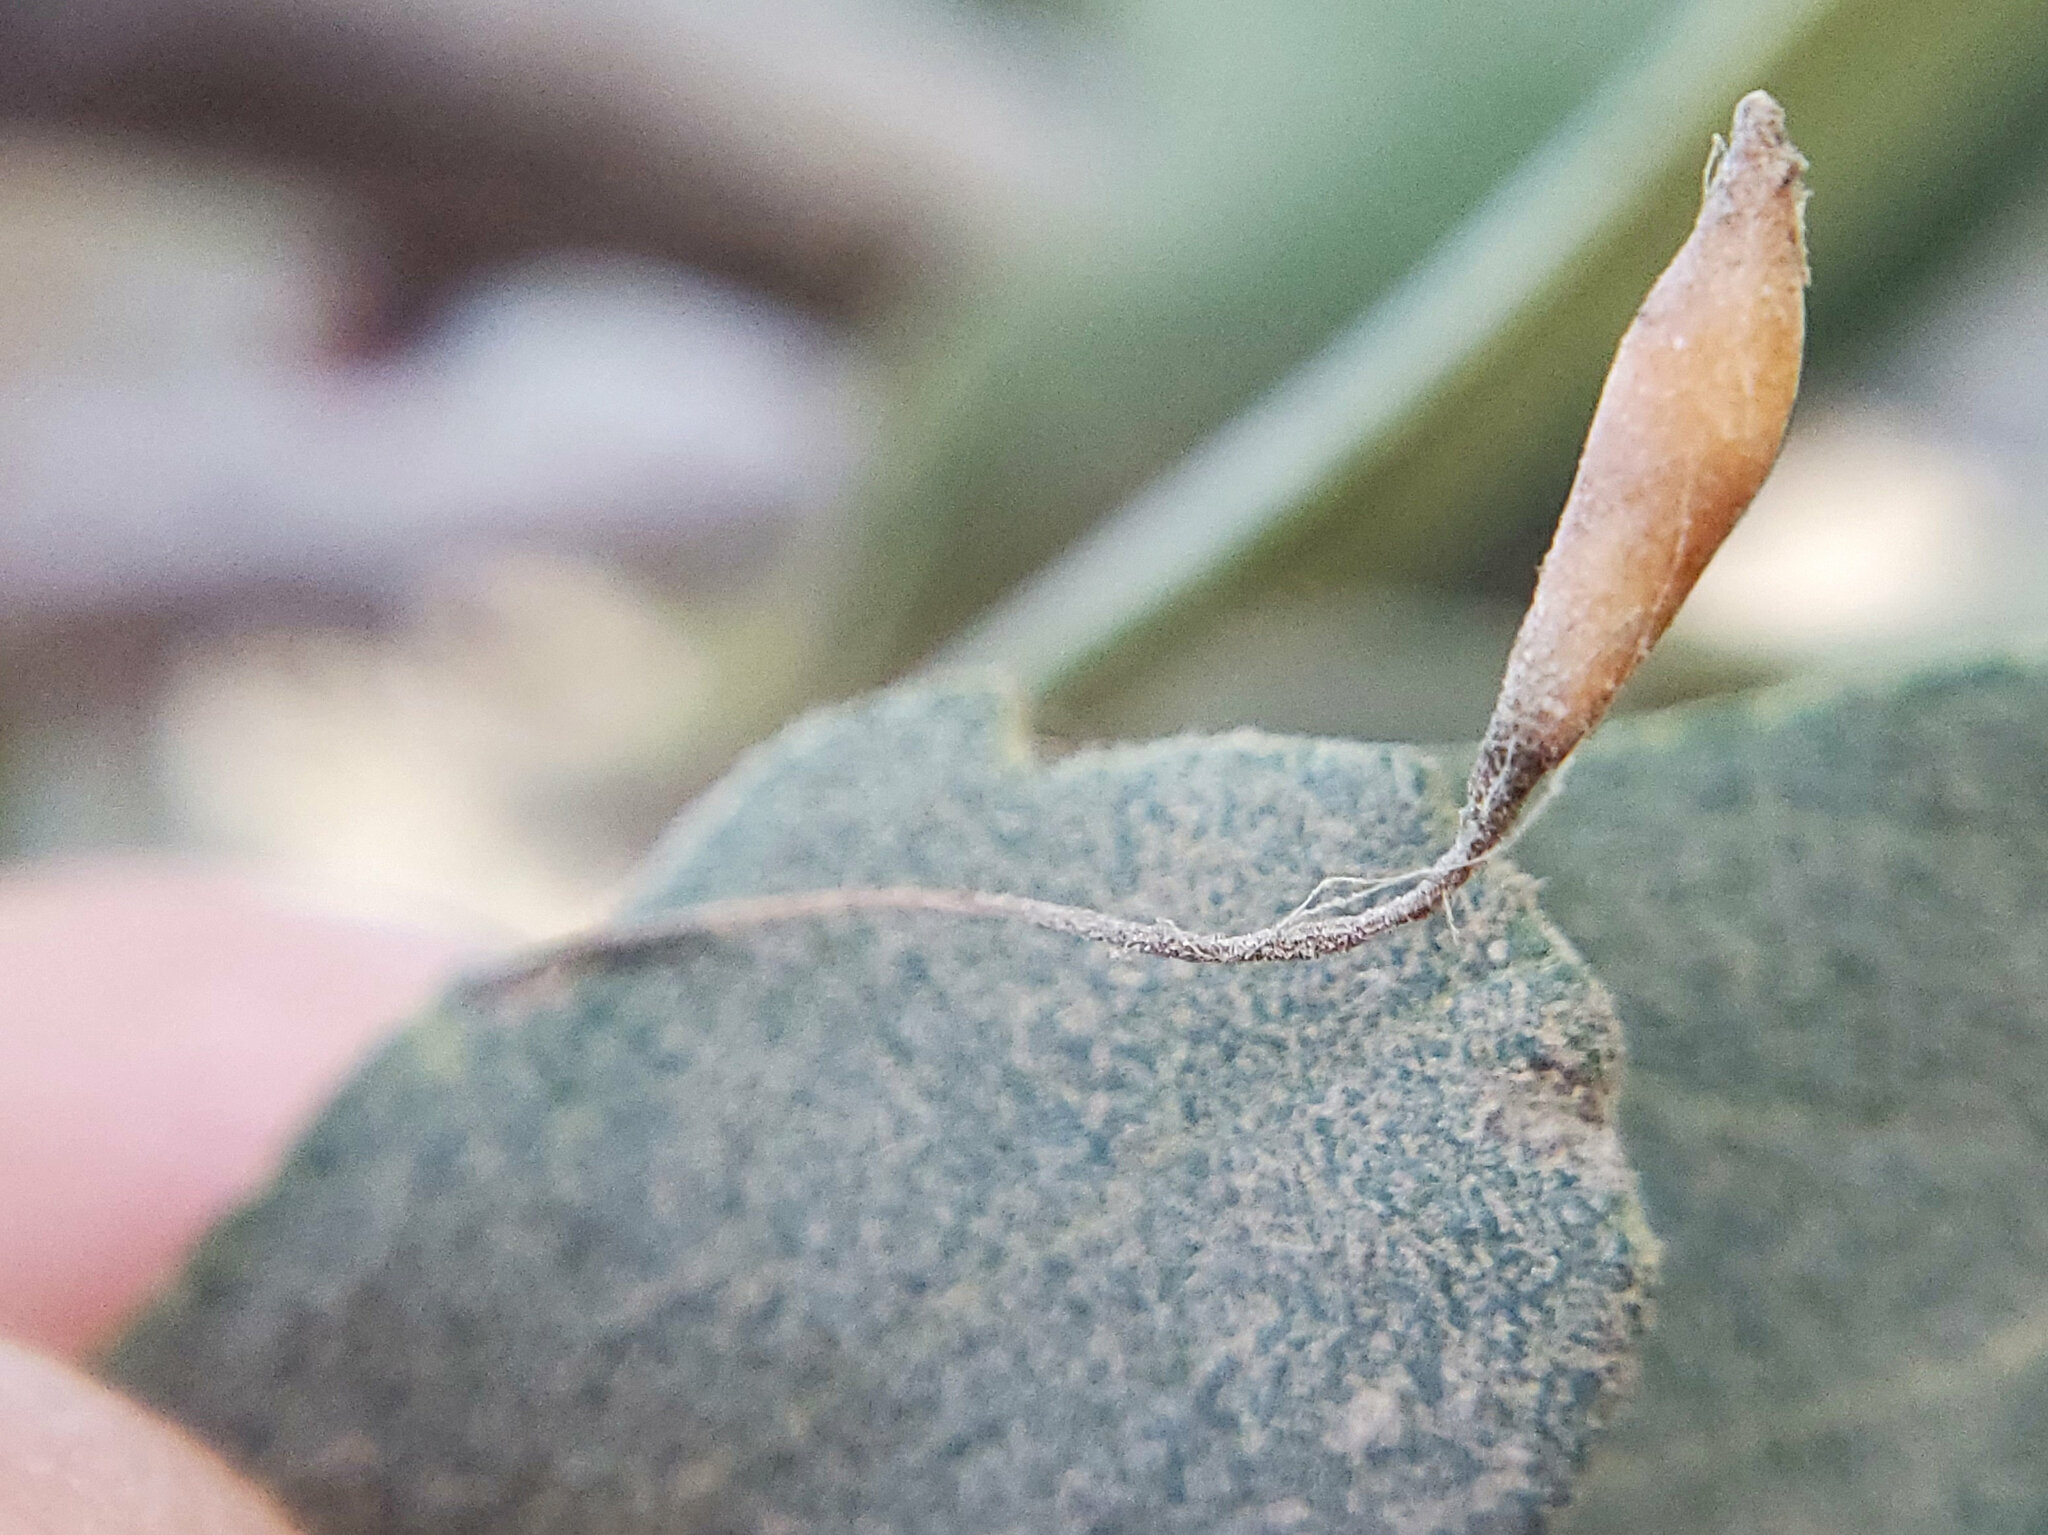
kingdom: Animalia
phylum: Arthropoda
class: Insecta
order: Hymenoptera
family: Cynipidae
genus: Andricus
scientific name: Andricus
